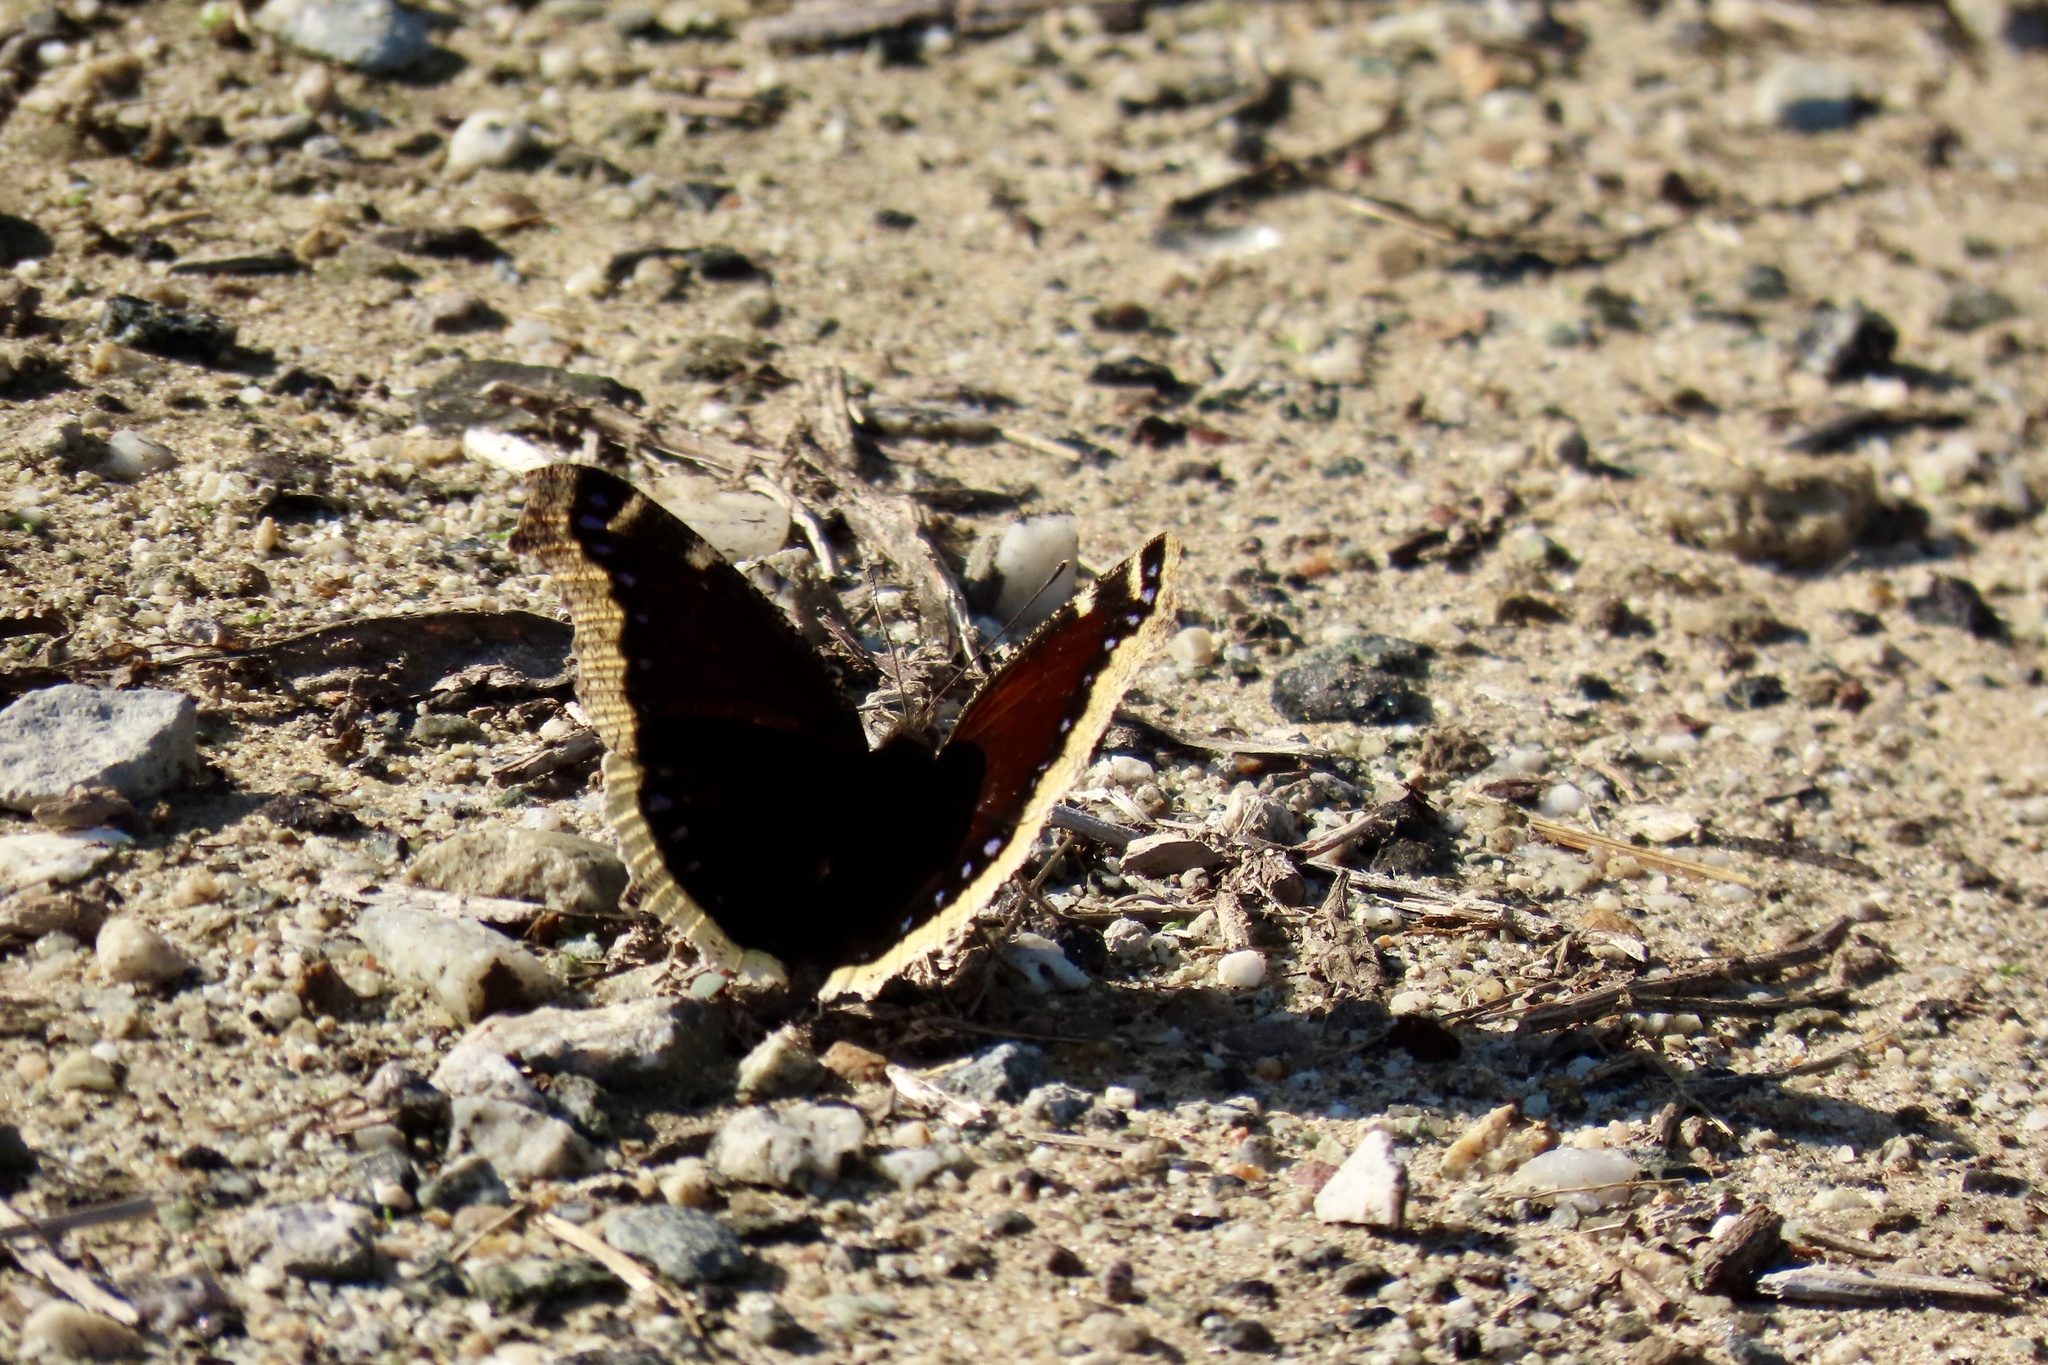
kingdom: Animalia
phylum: Arthropoda
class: Insecta
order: Lepidoptera
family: Nymphalidae
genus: Nymphalis
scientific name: Nymphalis antiopa
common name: Camberwell beauty
